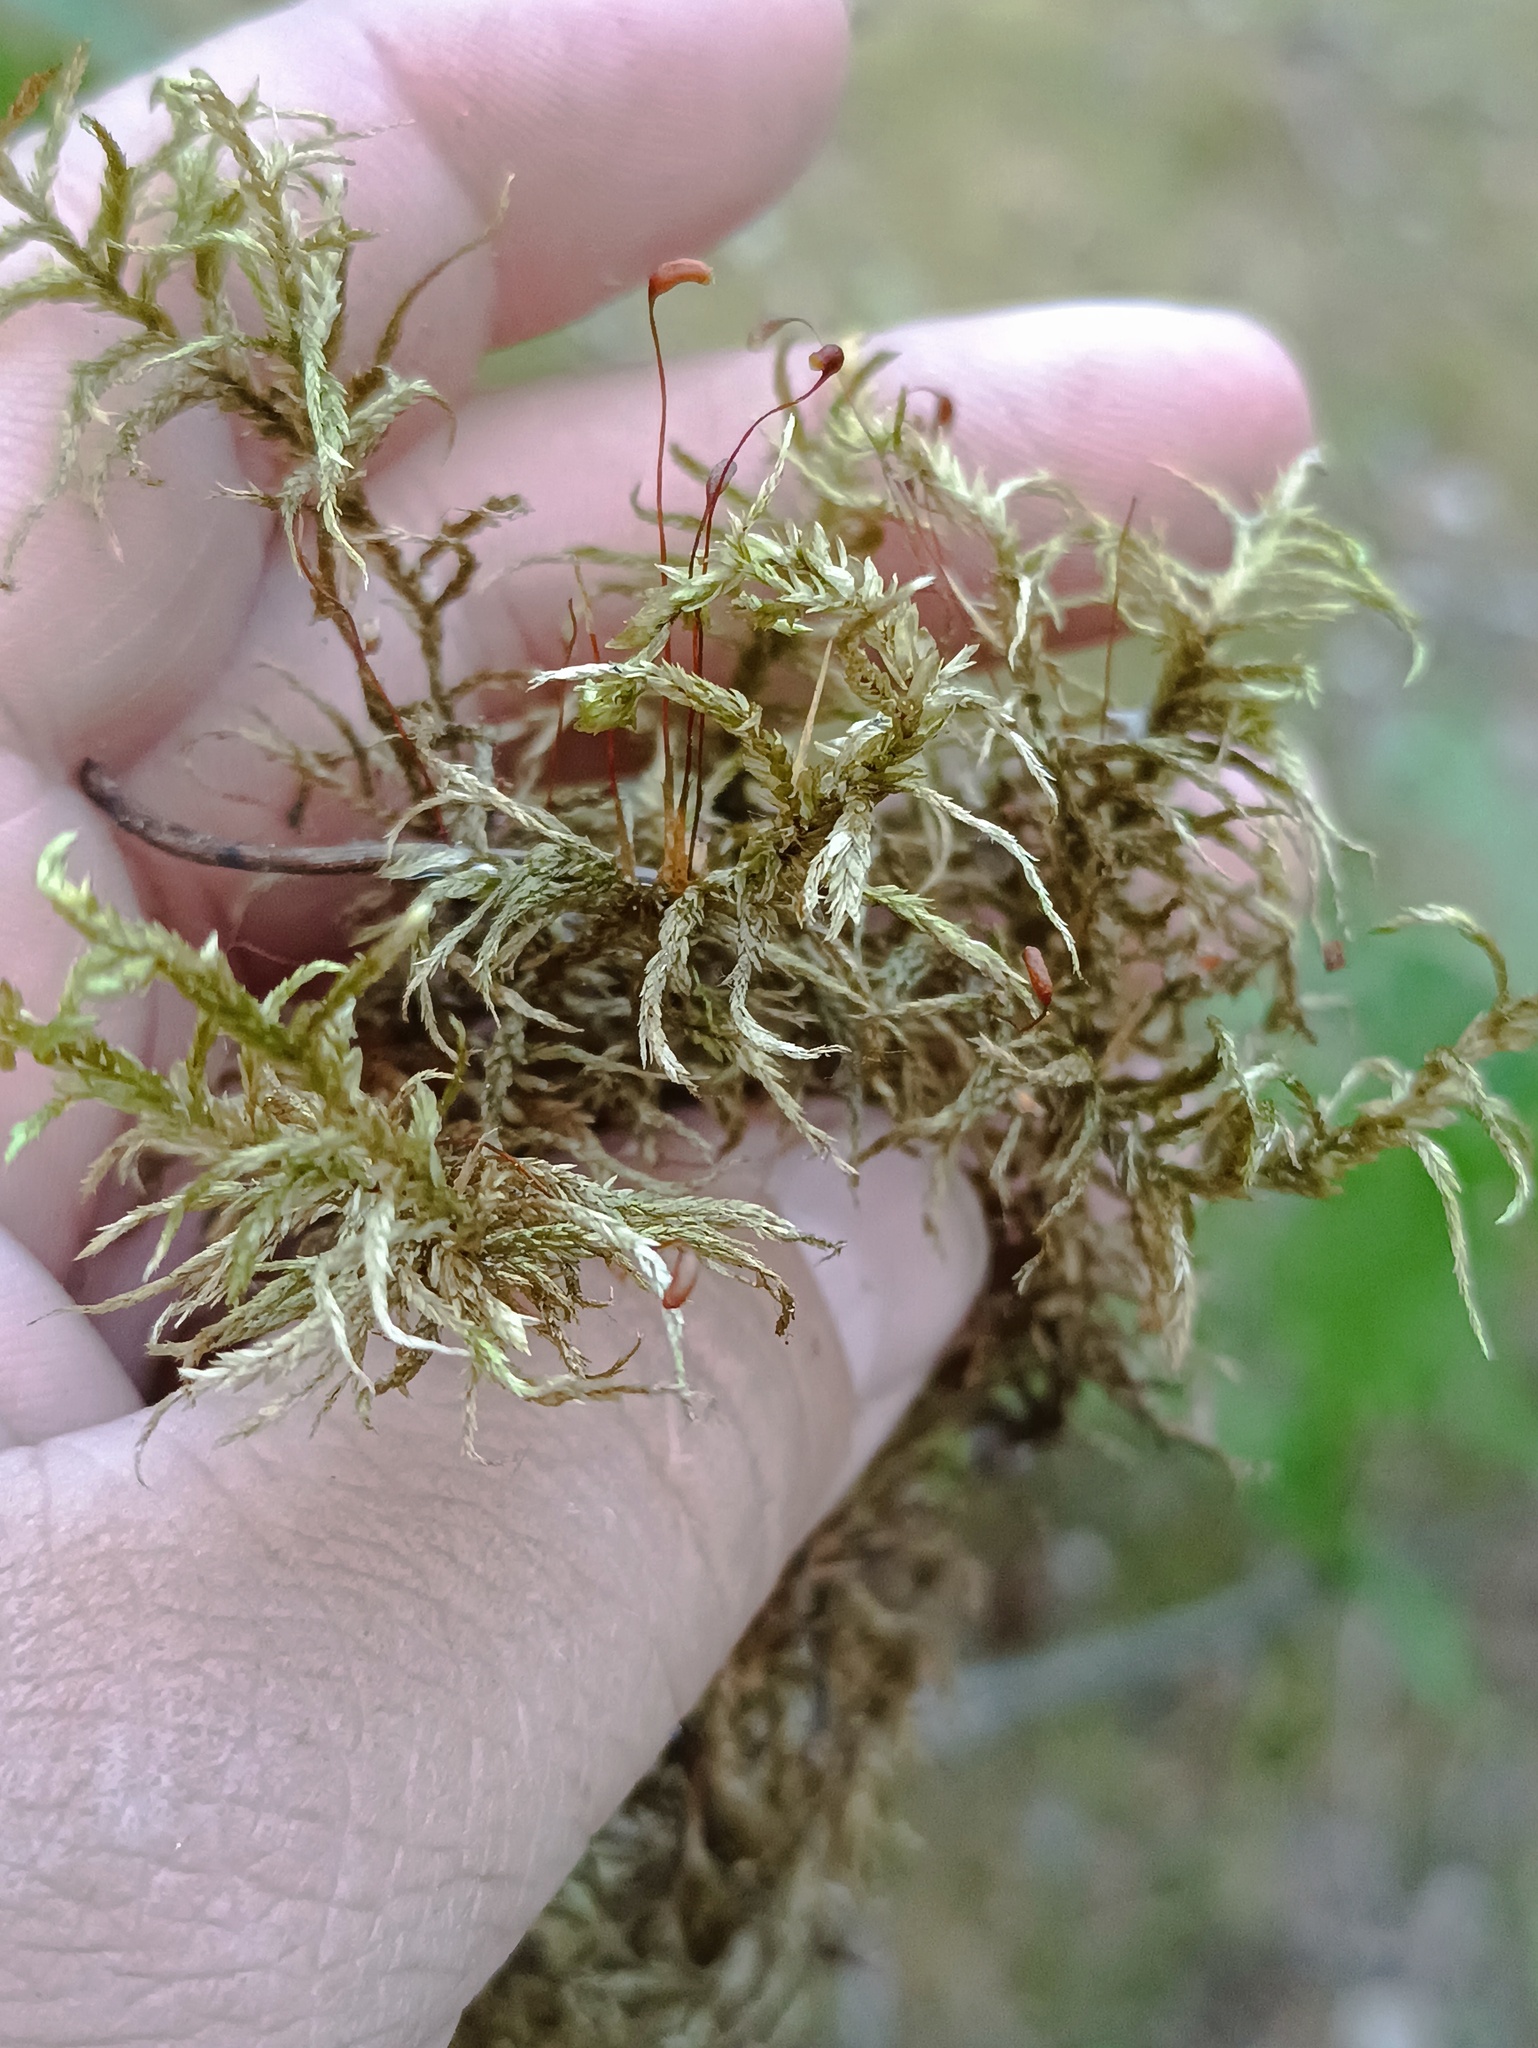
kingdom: Plantae
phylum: Bryophyta
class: Bryopsida
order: Hypnales
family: Hylocomiaceae
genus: Pleurozium
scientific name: Pleurozium schreberi
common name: Red-stemmed feather moss
